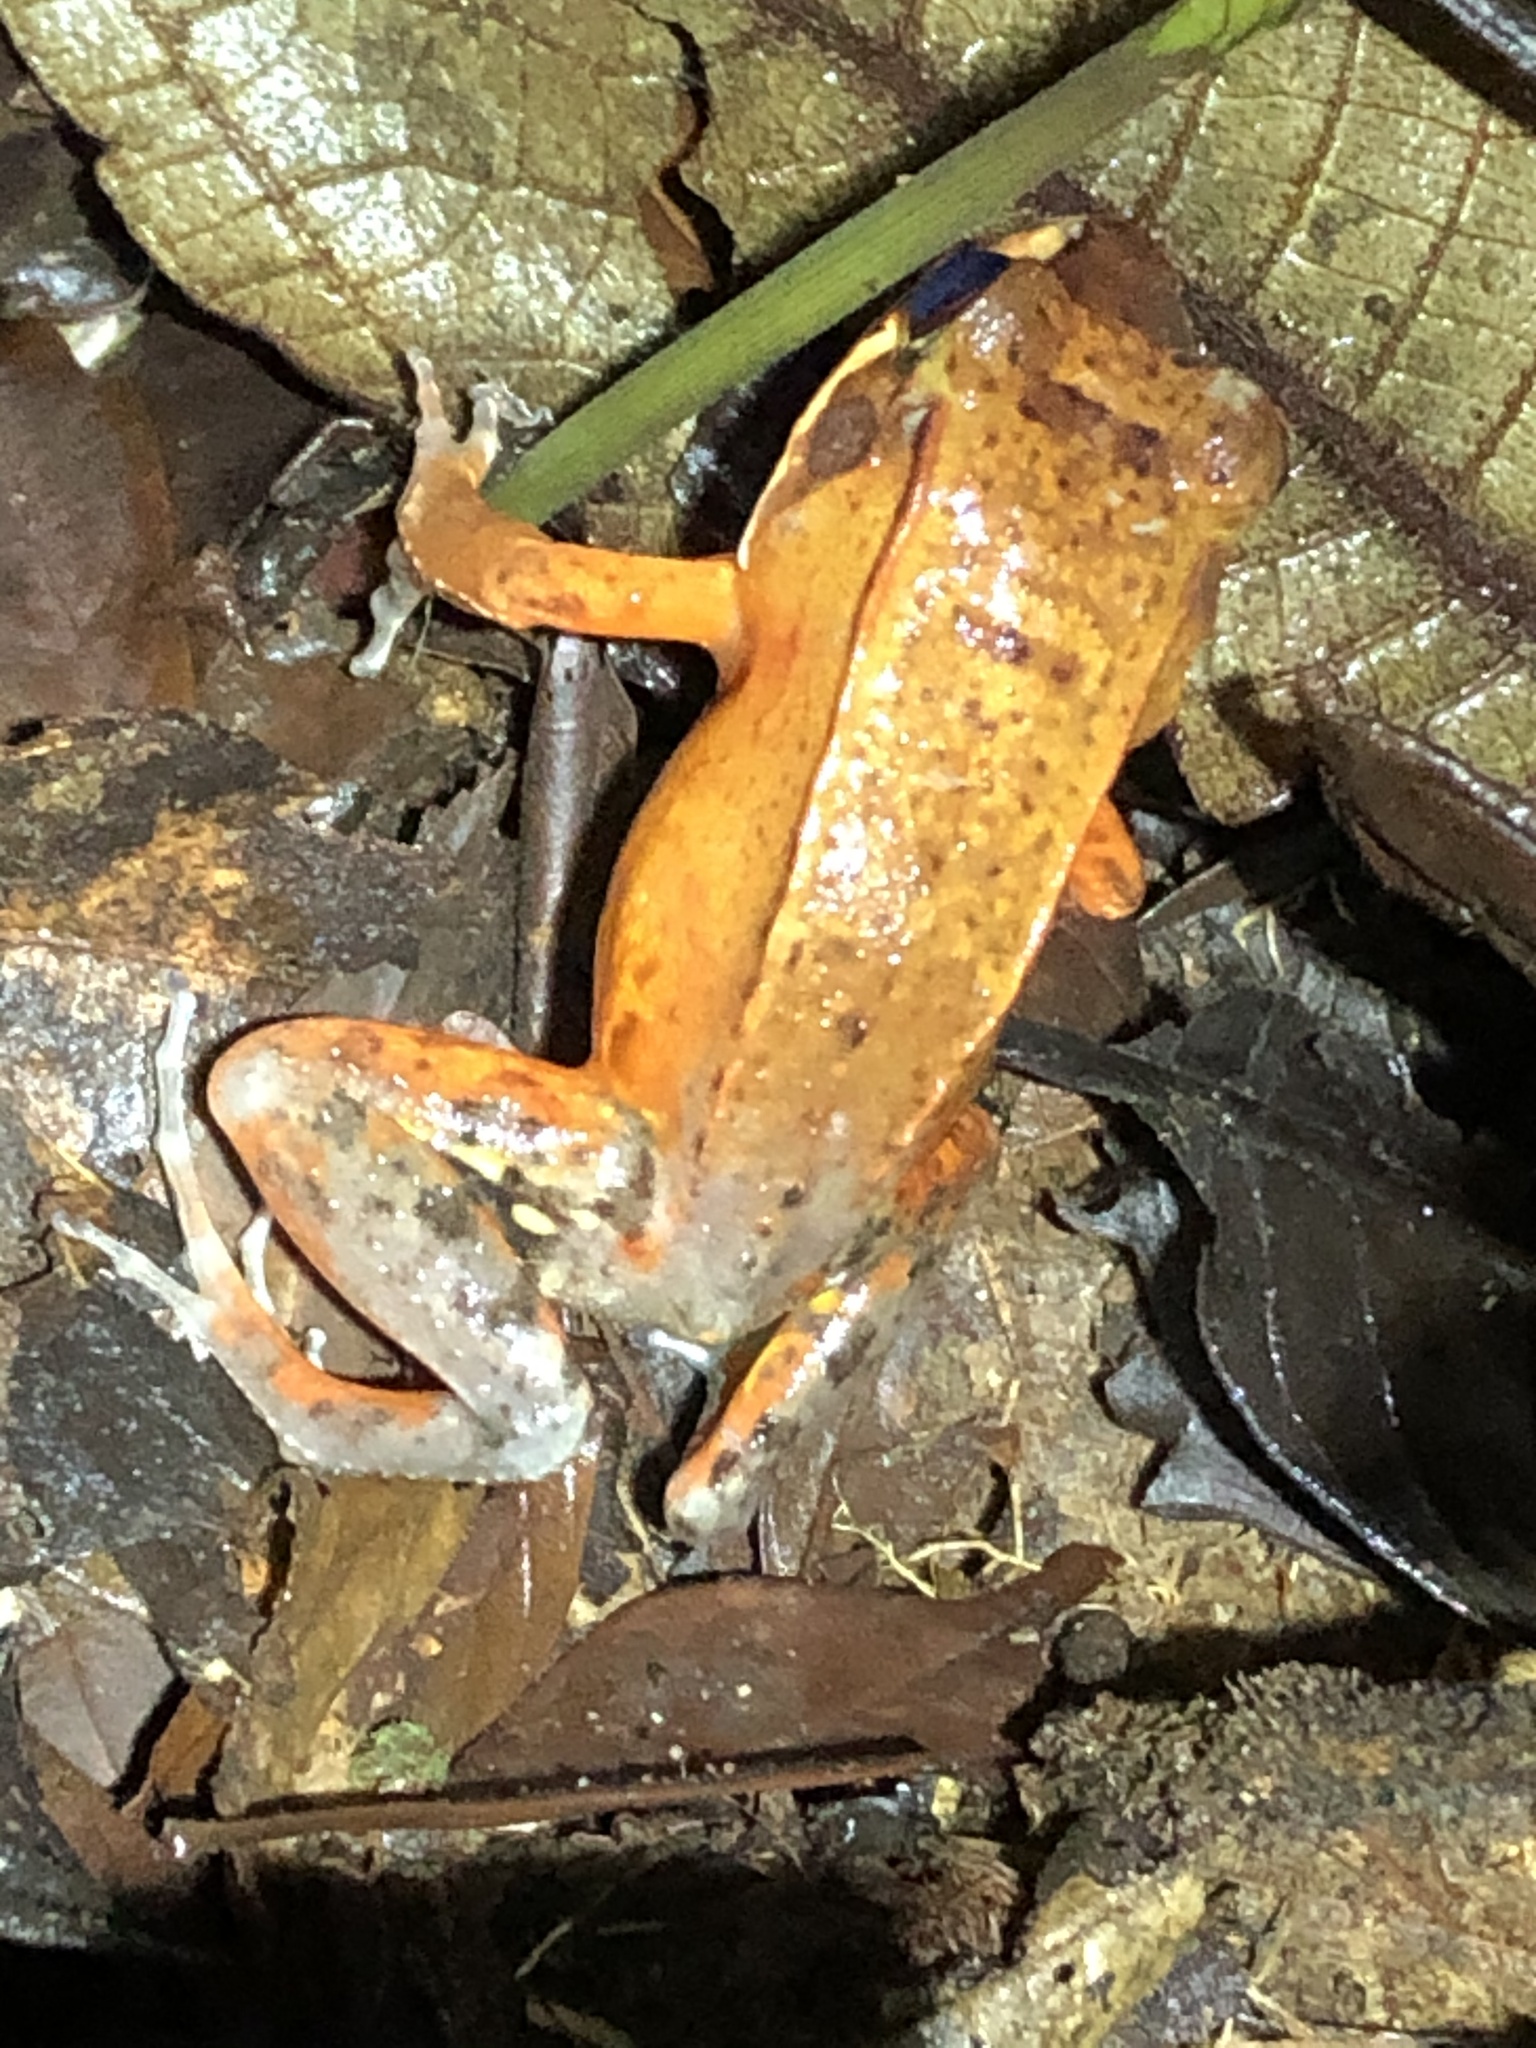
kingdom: Animalia
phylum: Chordata
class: Amphibia
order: Anura
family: Leptodactylidae
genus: Leptodactylus
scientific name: Leptodactylus rhodomystax
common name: Loreto white-lipped frog
